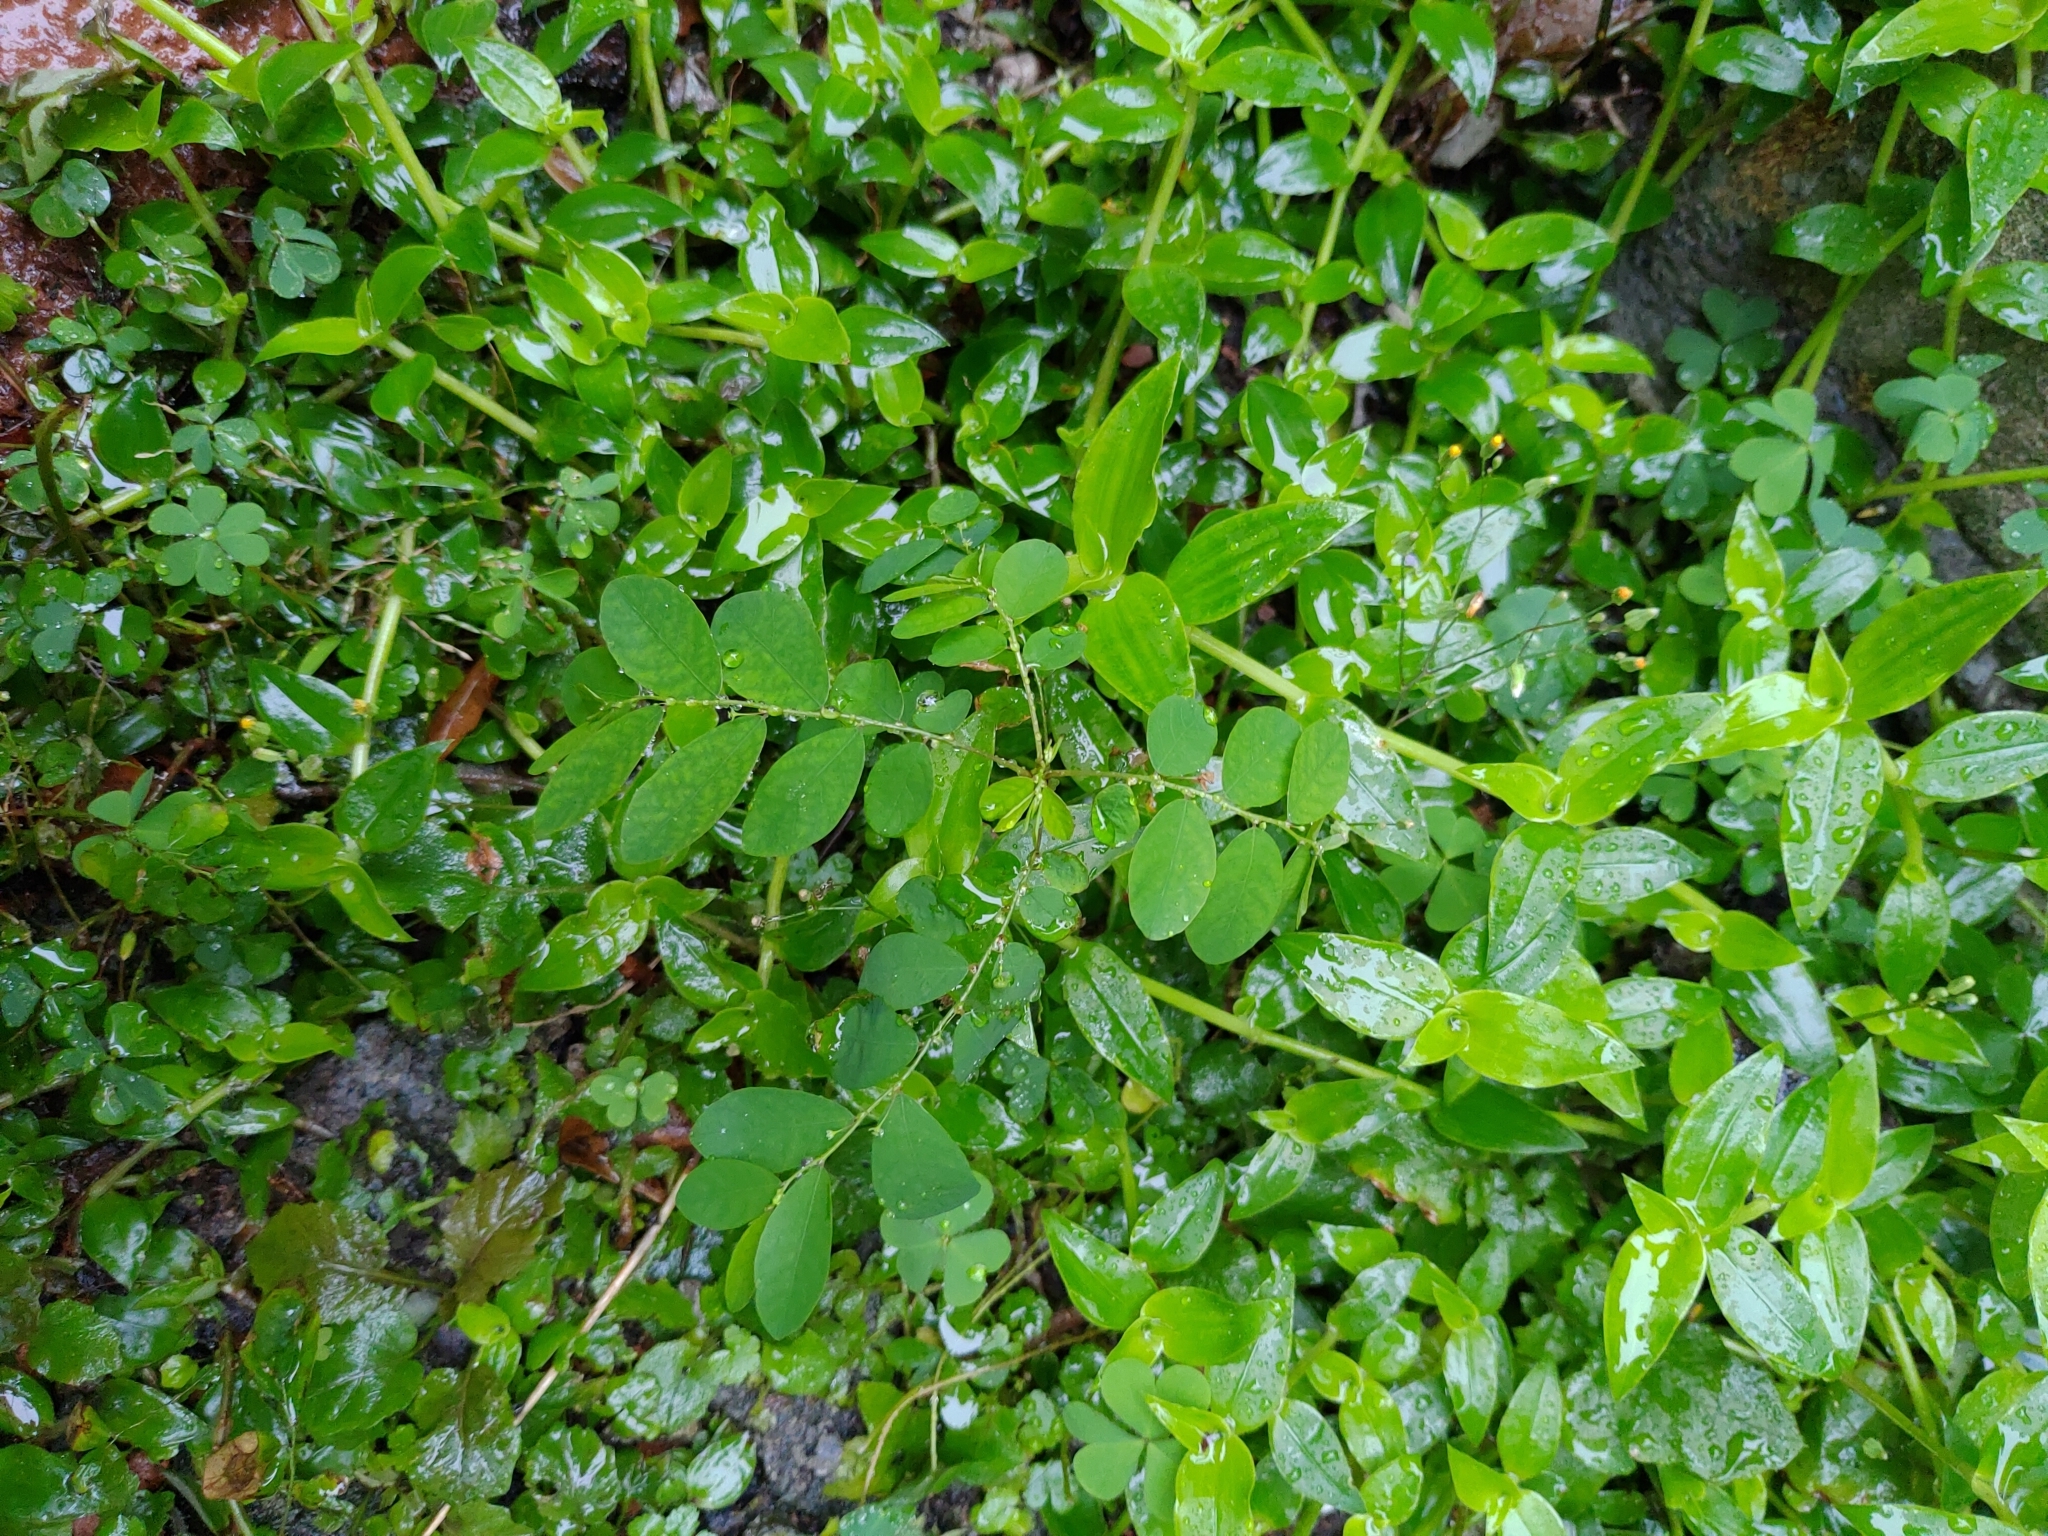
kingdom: Plantae
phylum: Tracheophyta
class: Magnoliopsida
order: Malpighiales
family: Phyllanthaceae
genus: Phyllanthus
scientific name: Phyllanthus tenellus
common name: Mascarene island leaf-flower
